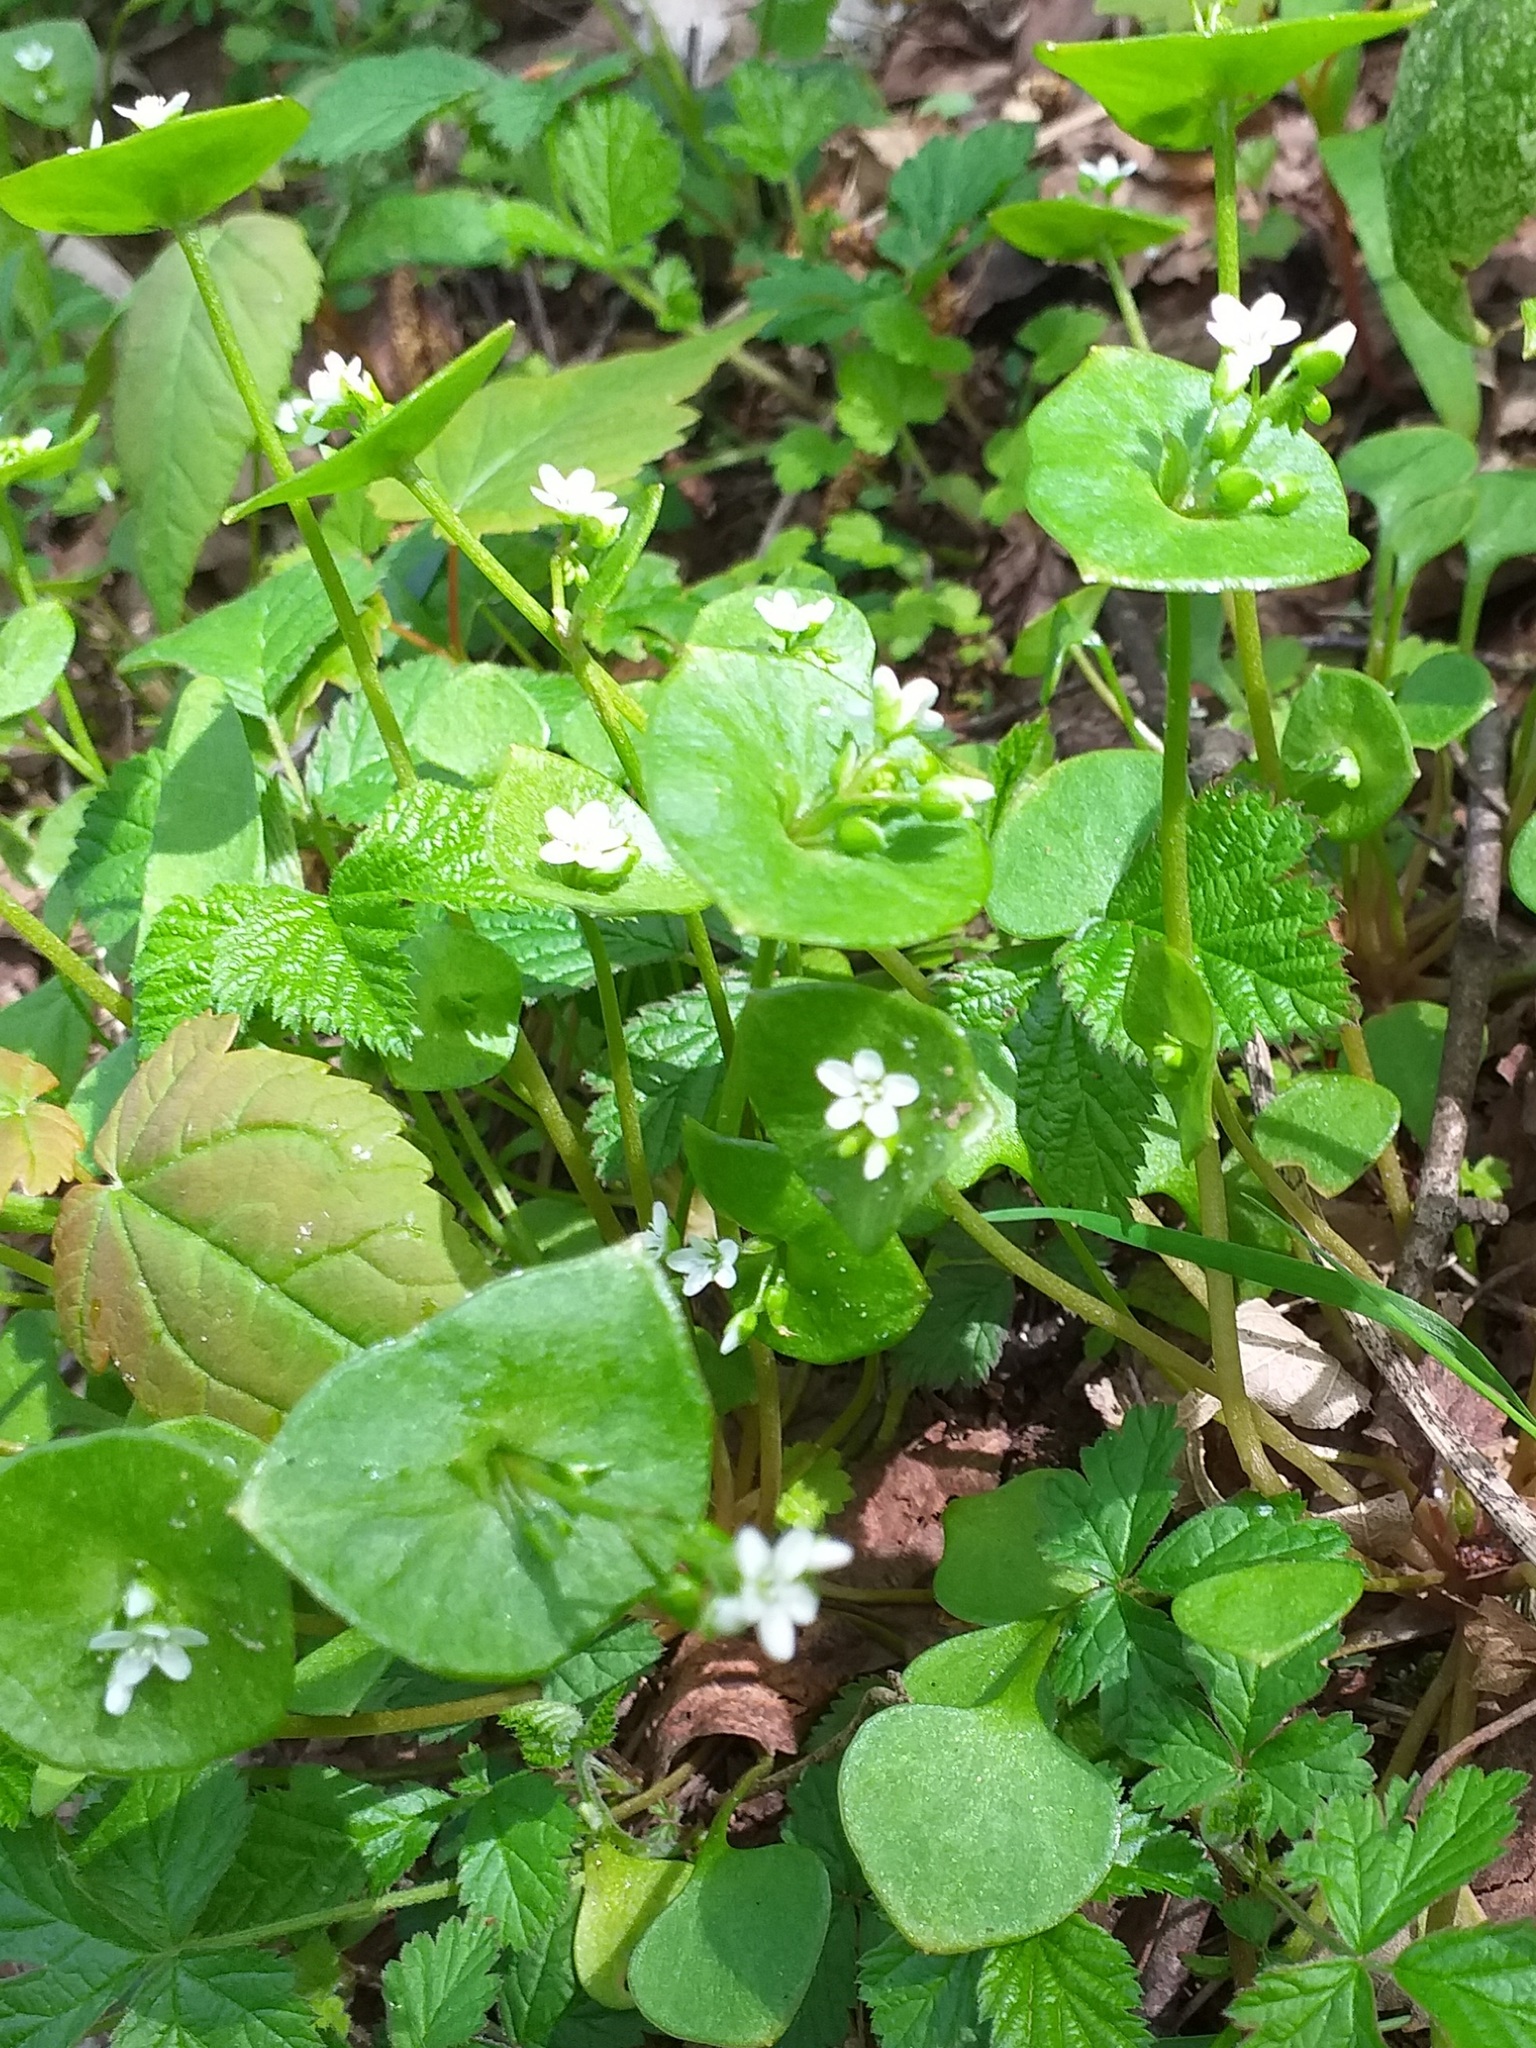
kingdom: Plantae
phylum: Tracheophyta
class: Magnoliopsida
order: Caryophyllales
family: Montiaceae
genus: Claytonia
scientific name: Claytonia perfoliata
